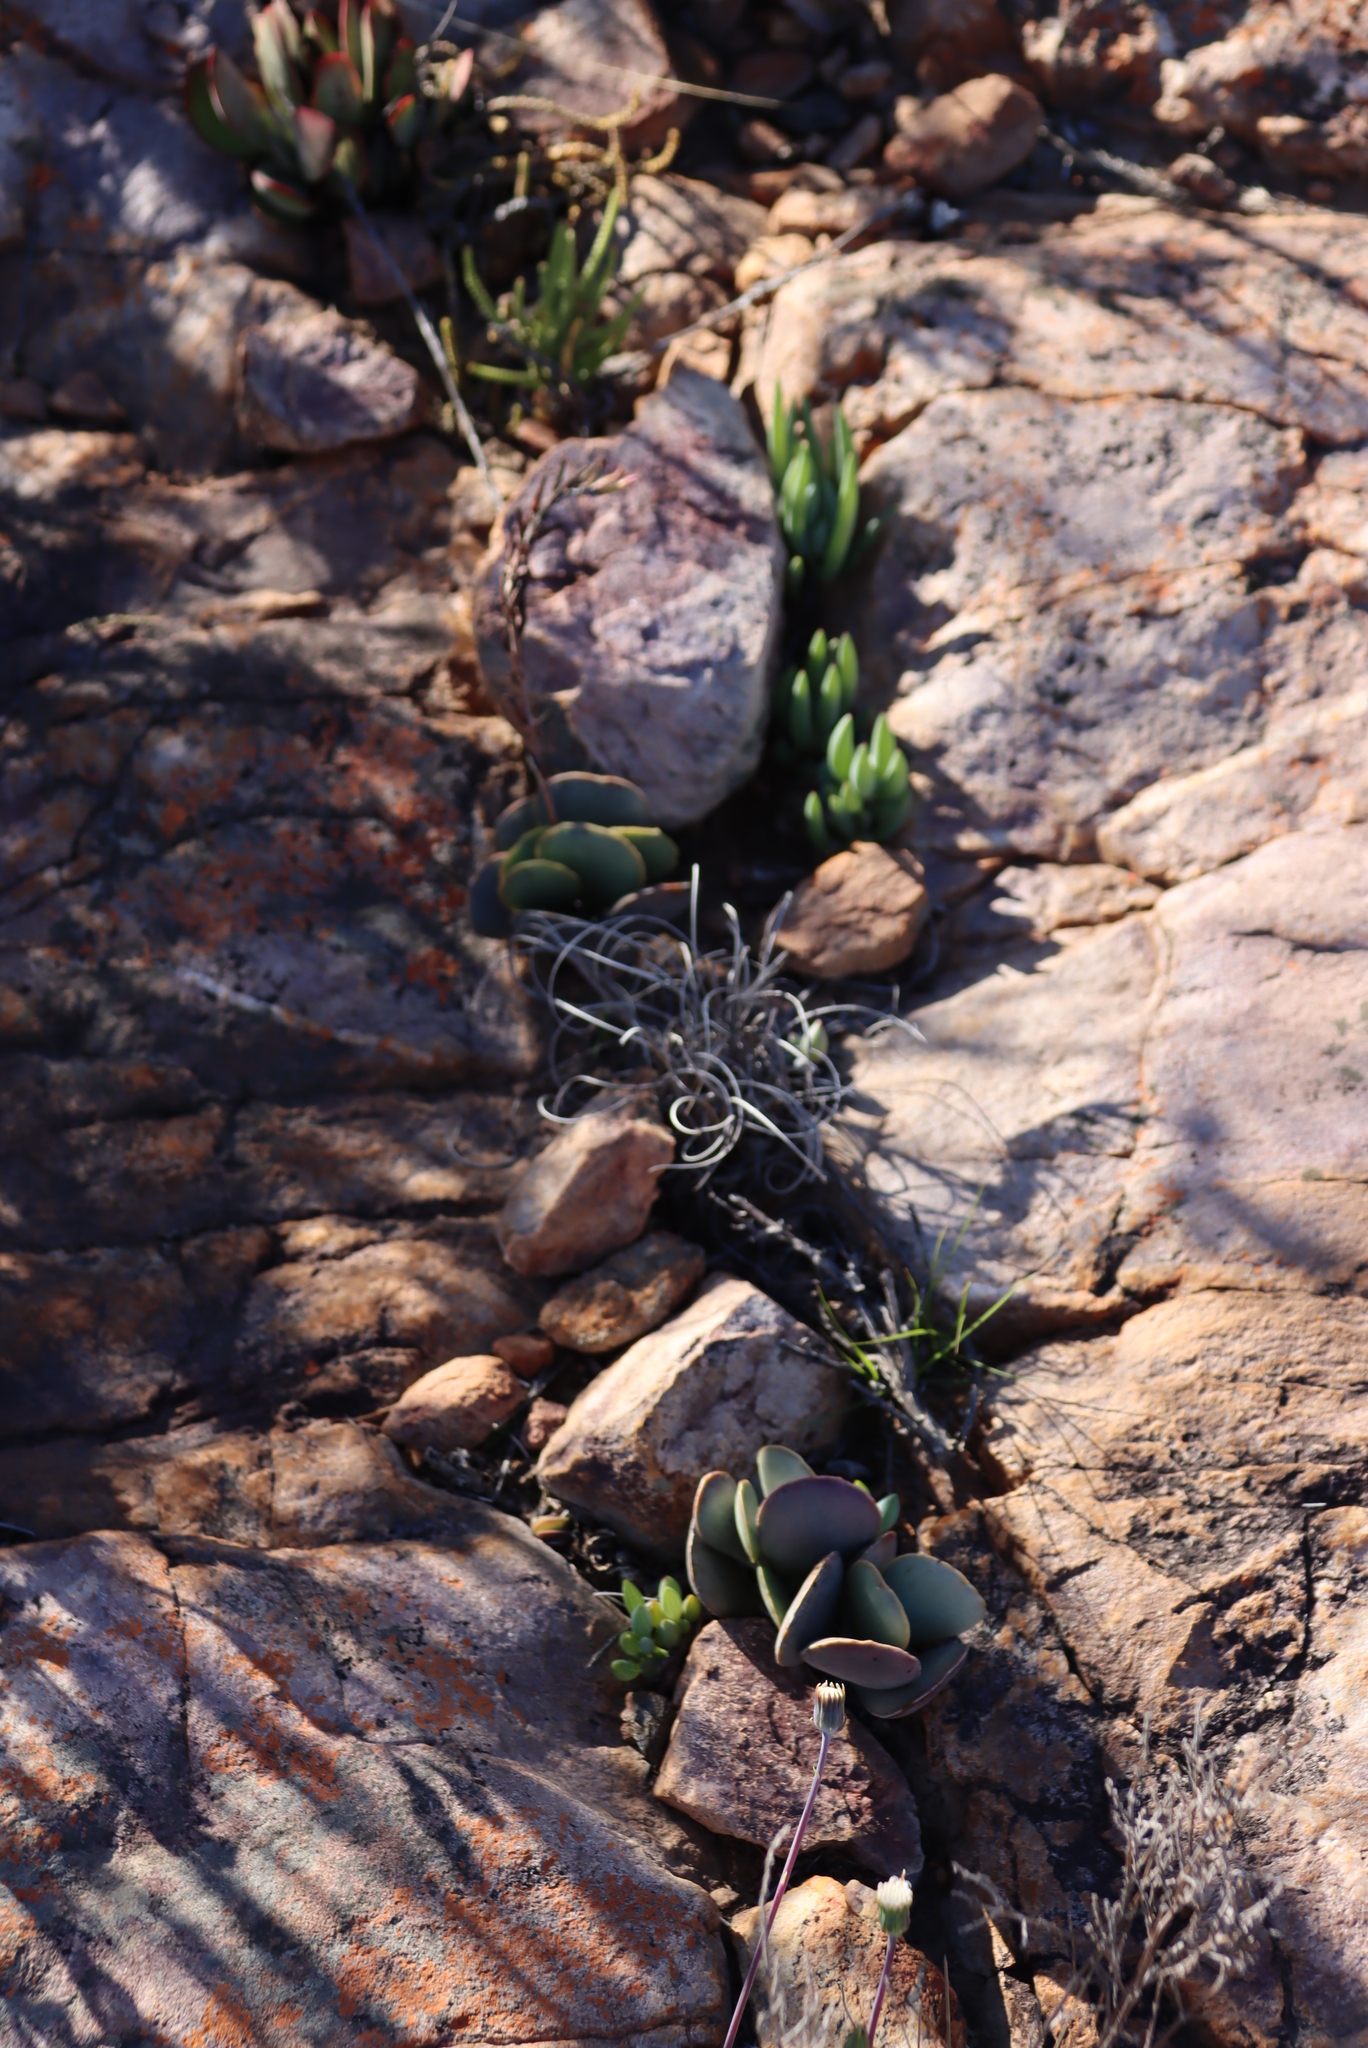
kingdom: Plantae
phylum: Tracheophyta
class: Magnoliopsida
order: Saxifragales
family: Crassulaceae
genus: Crassula
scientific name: Crassula nudicaulis
